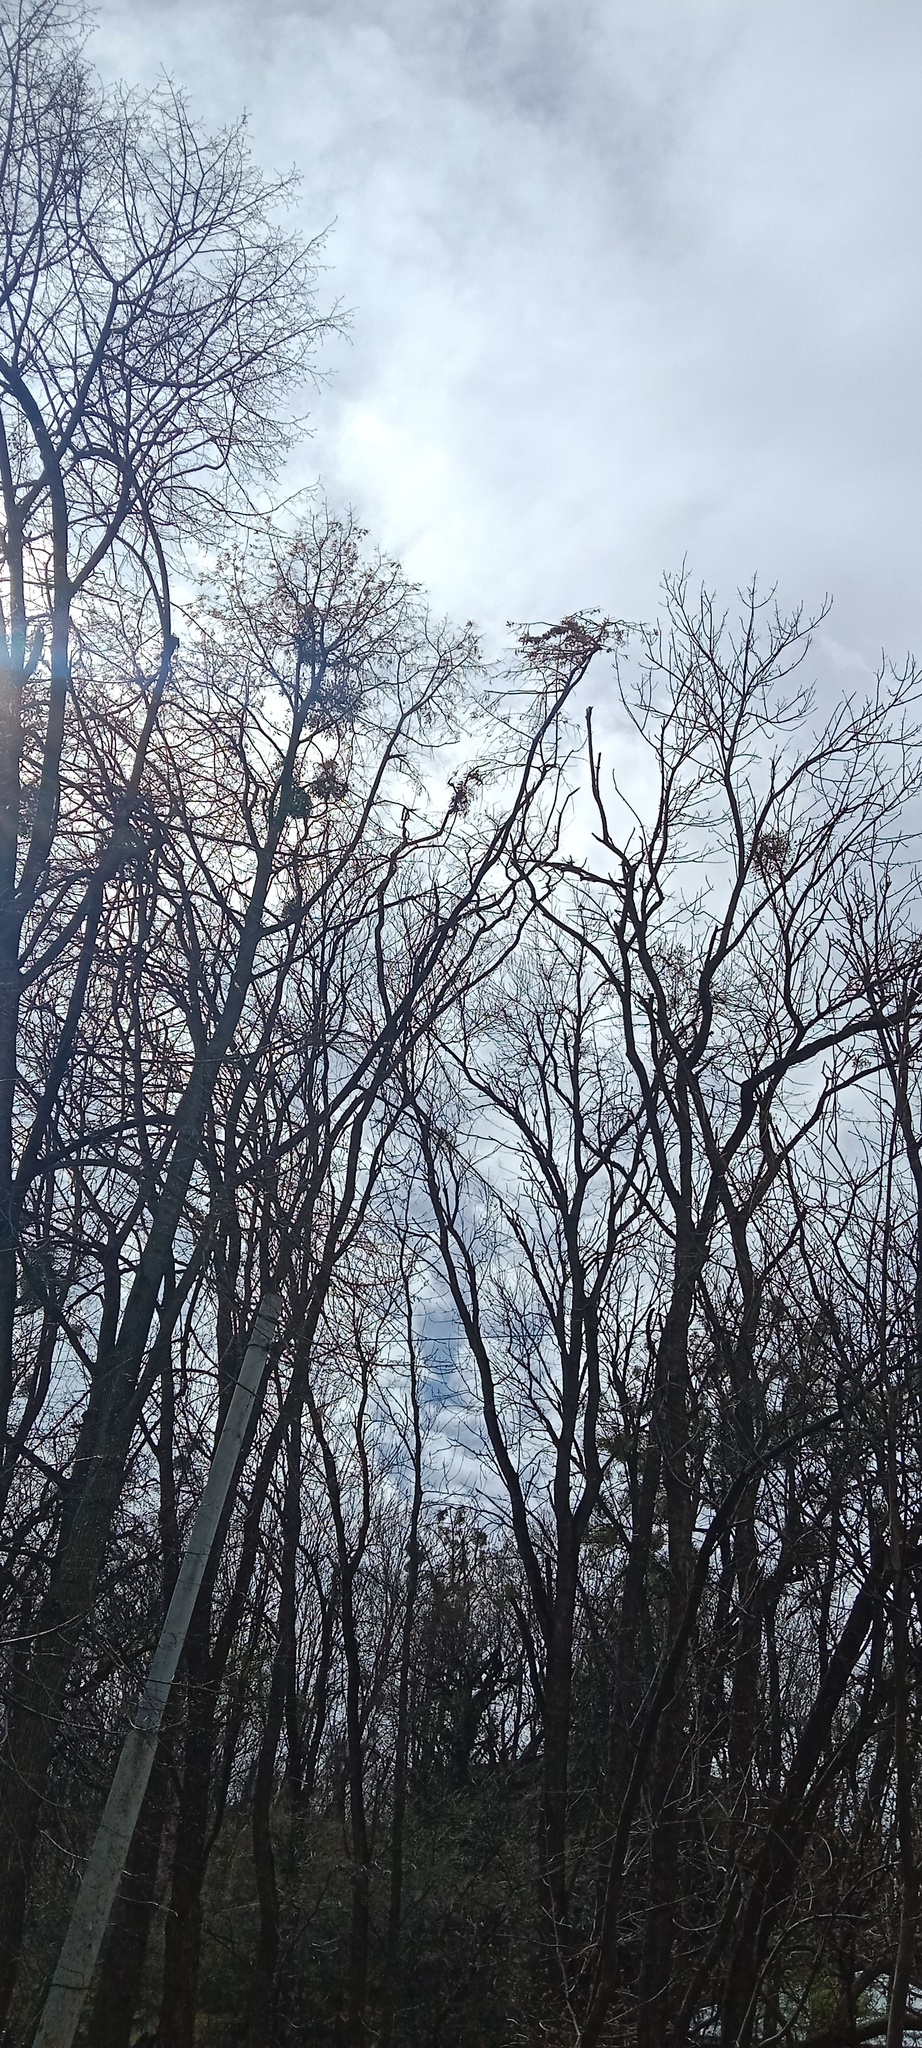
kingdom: Plantae
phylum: Tracheophyta
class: Magnoliopsida
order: Santalales
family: Viscaceae
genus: Viscum
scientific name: Viscum album
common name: Mistletoe
